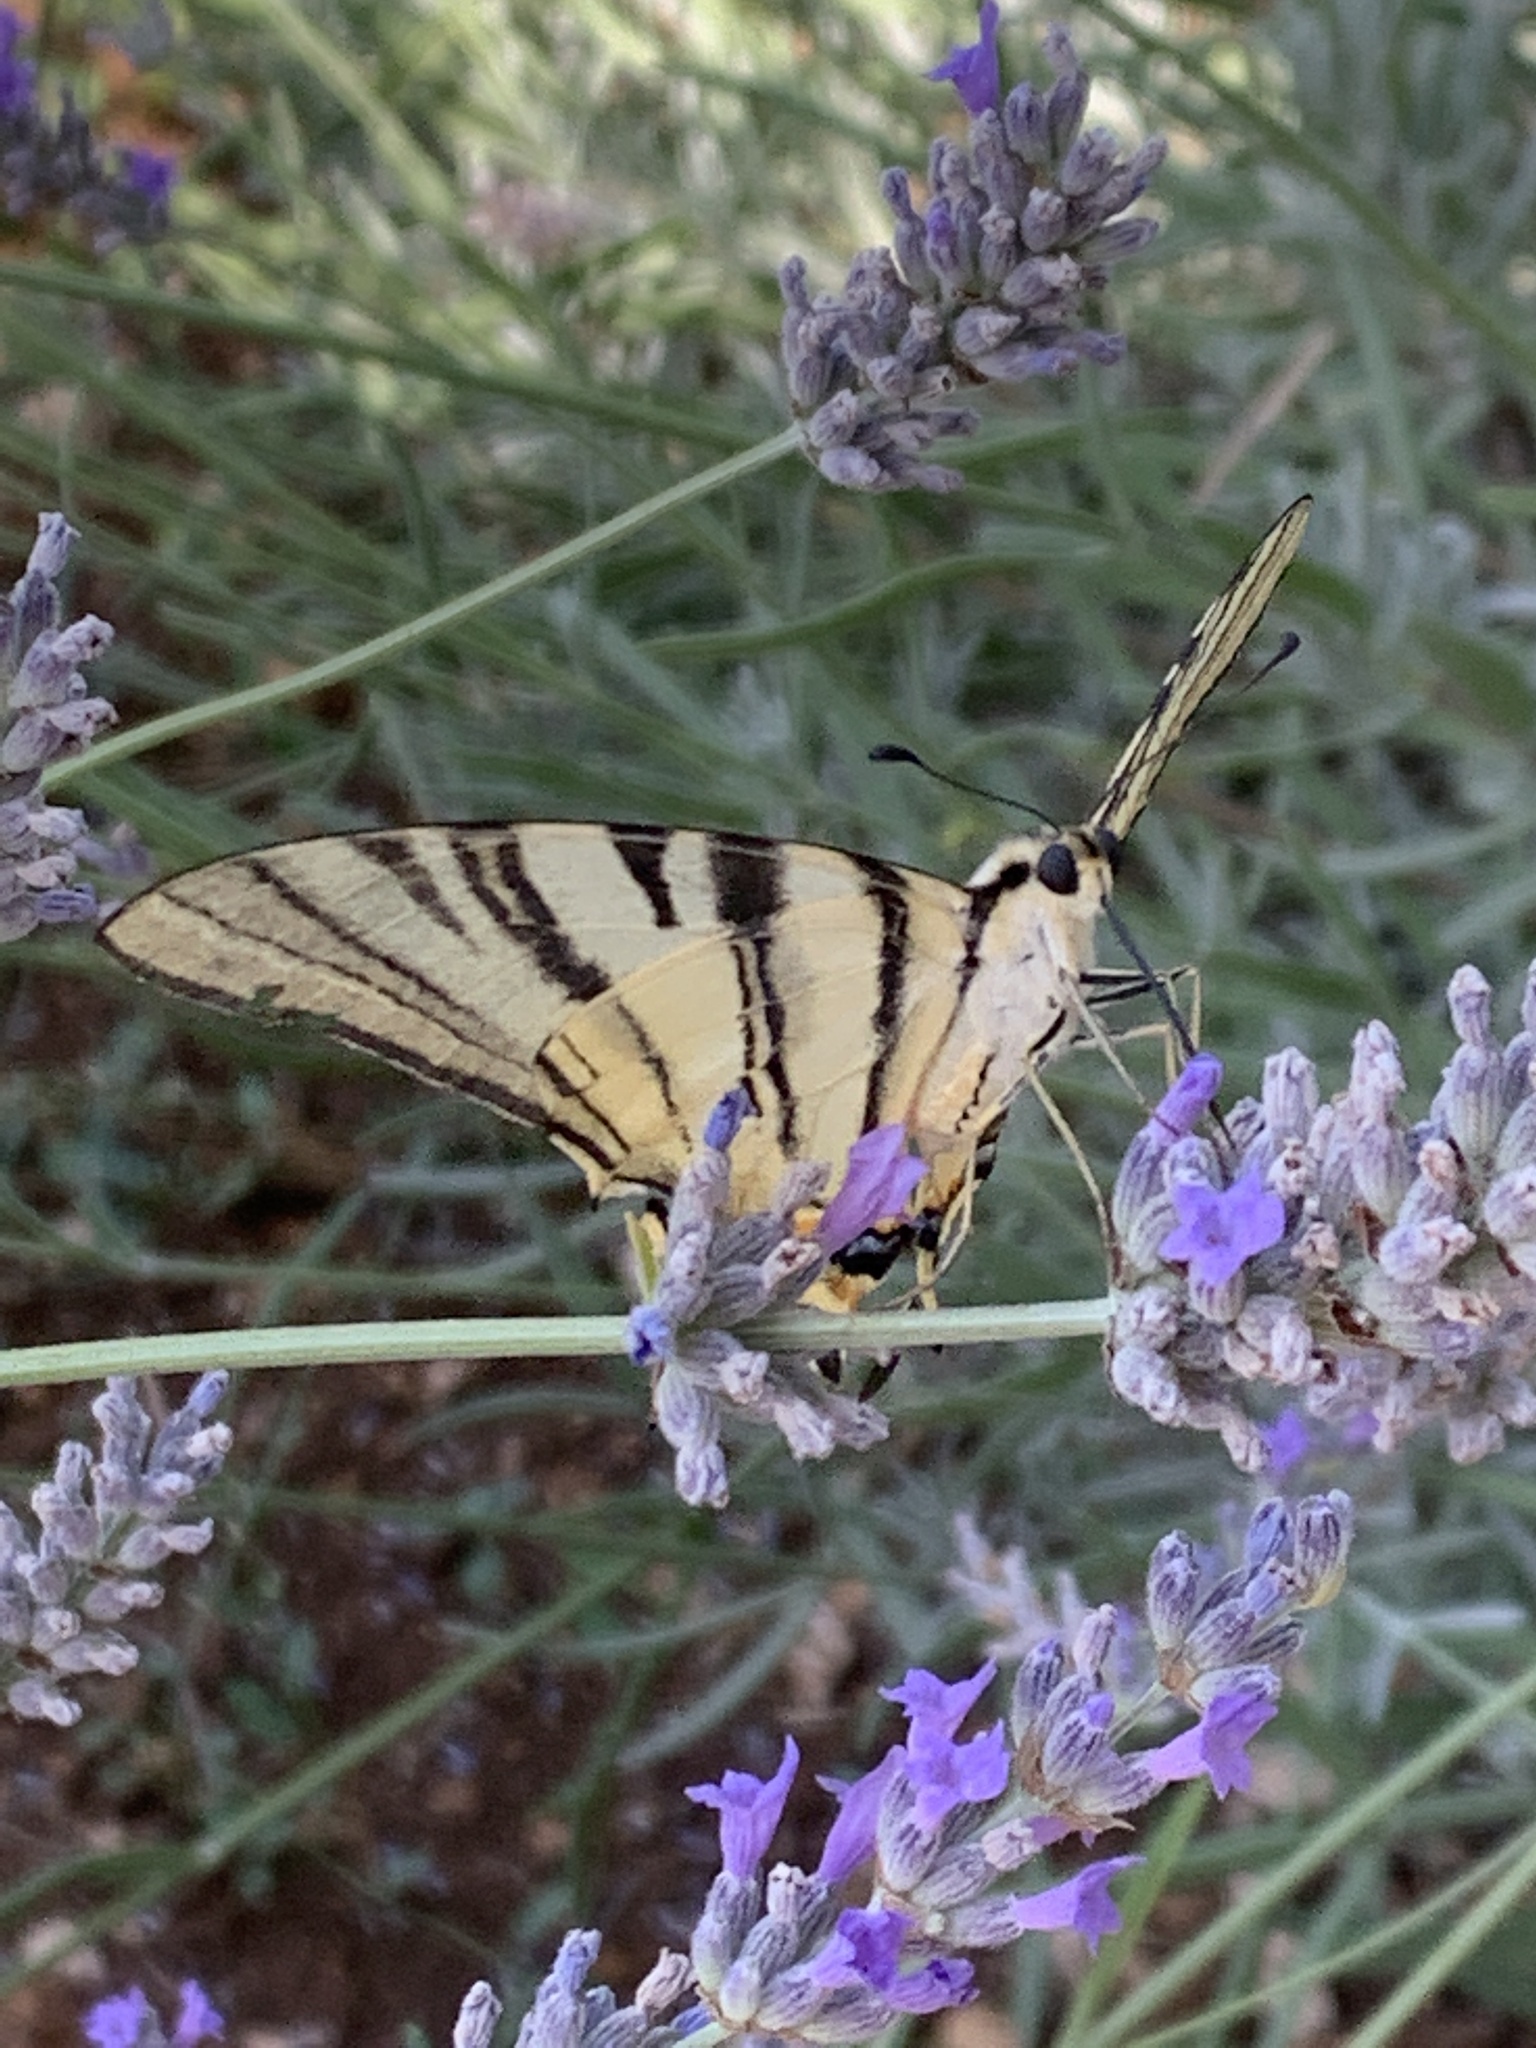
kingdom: Animalia
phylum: Arthropoda
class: Insecta
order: Lepidoptera
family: Papilionidae
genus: Iphiclides
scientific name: Iphiclides podalirius
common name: Scarce swallowtail
